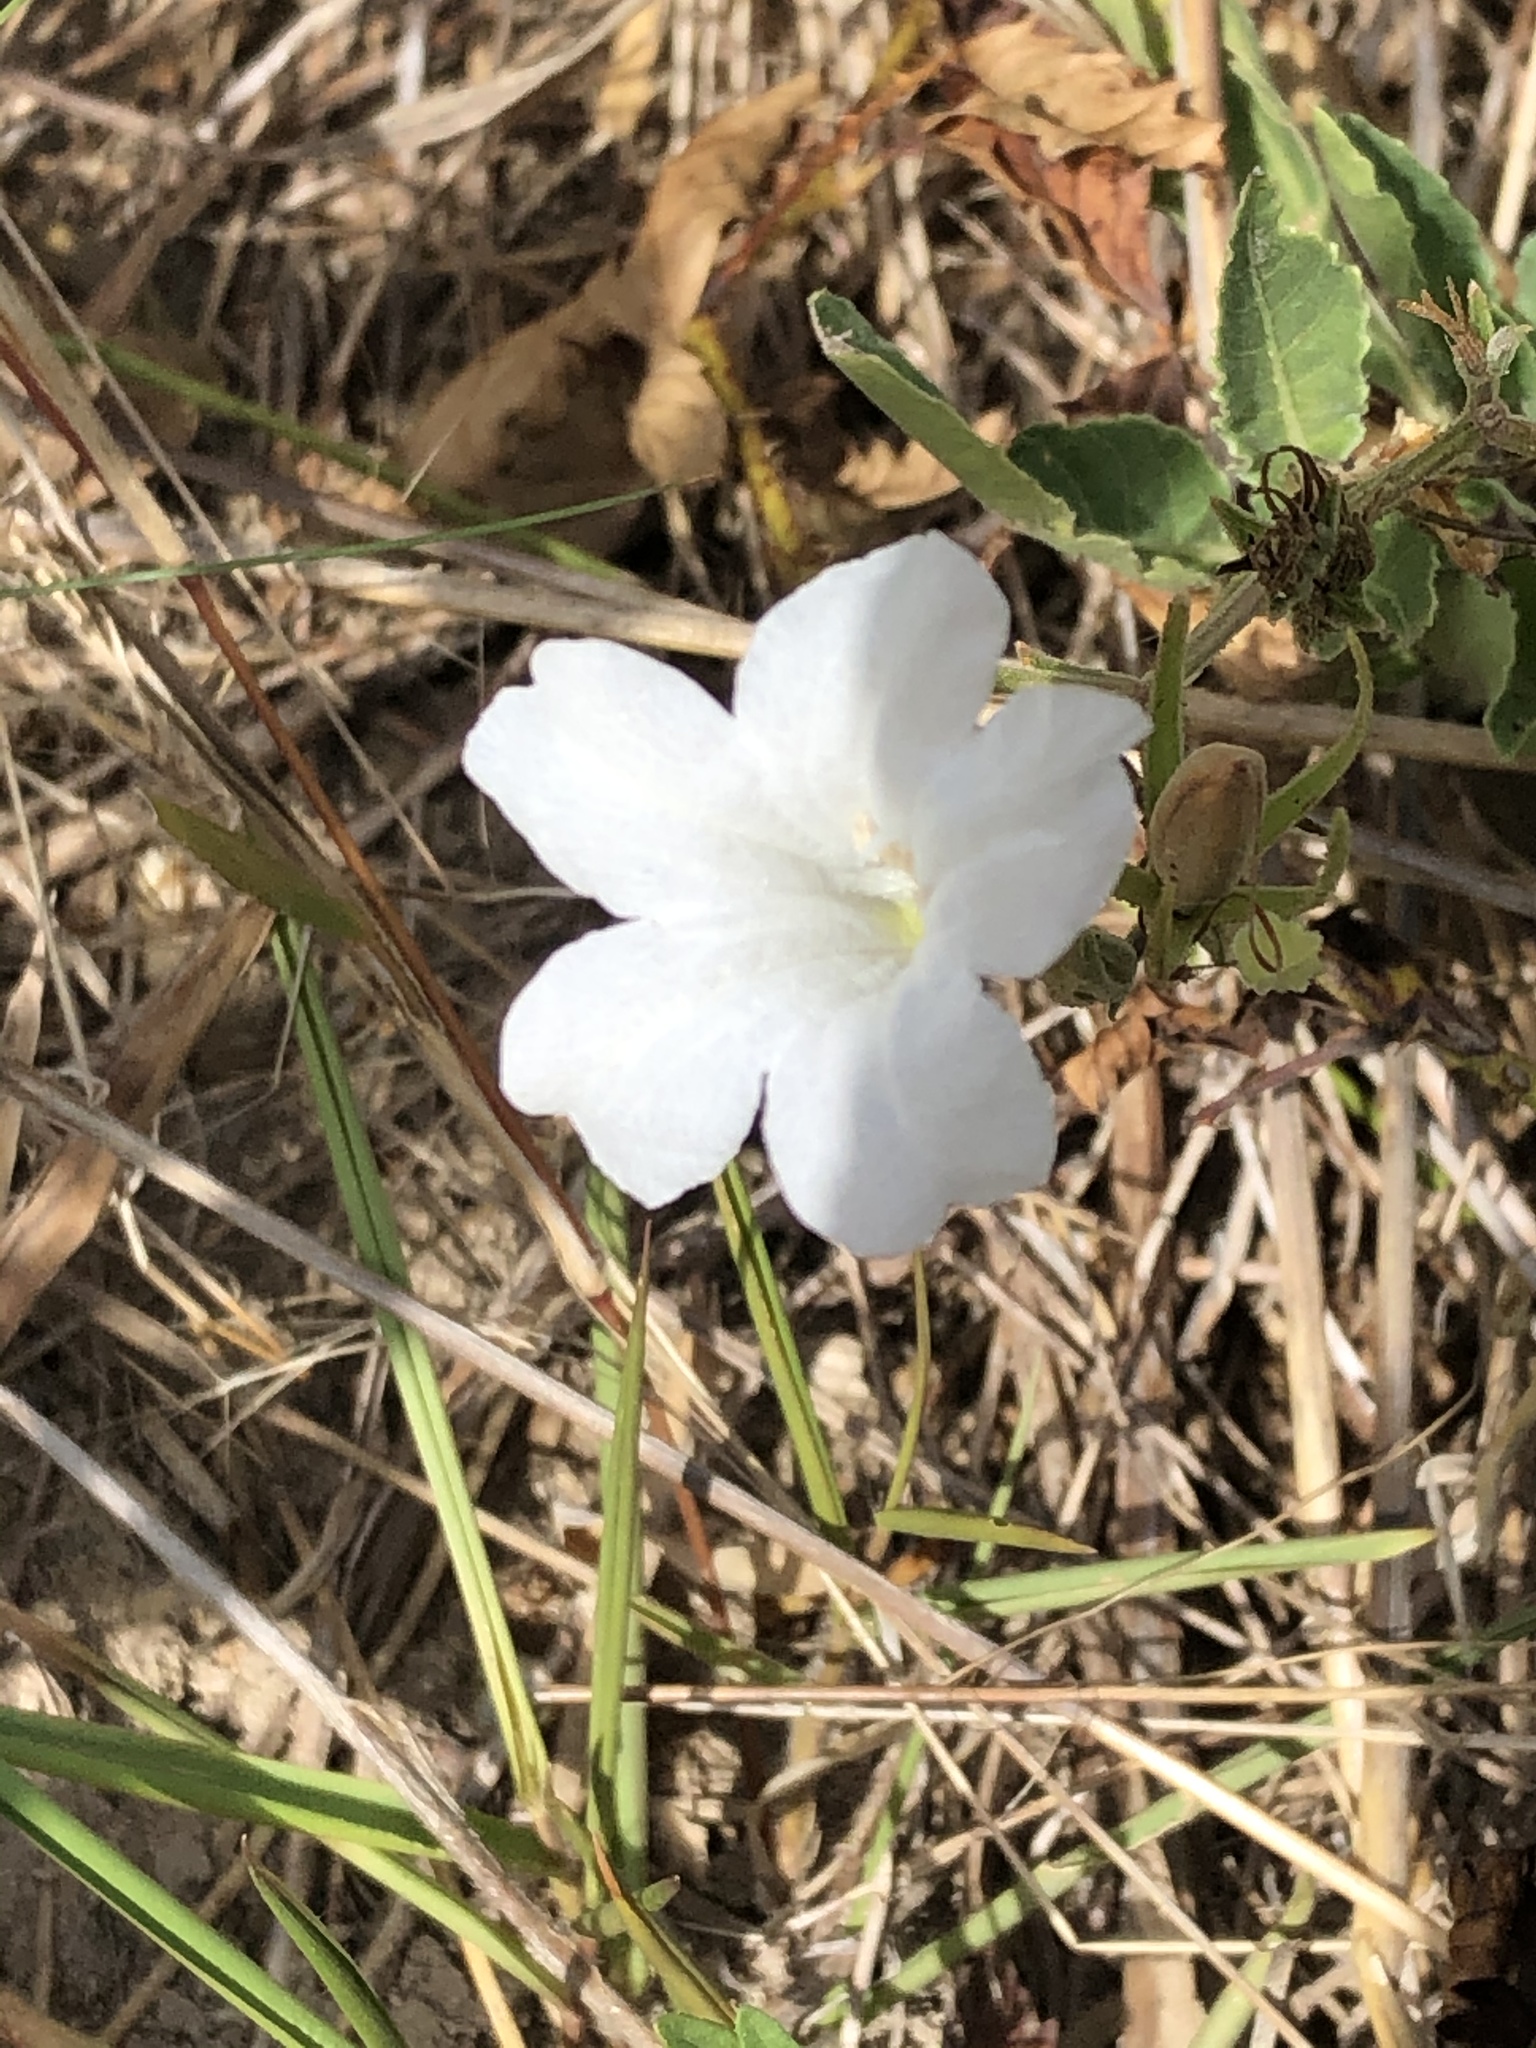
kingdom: Plantae
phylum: Tracheophyta
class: Magnoliopsida
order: Lamiales
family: Acanthaceae
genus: Ruellia
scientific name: Ruellia metziae
